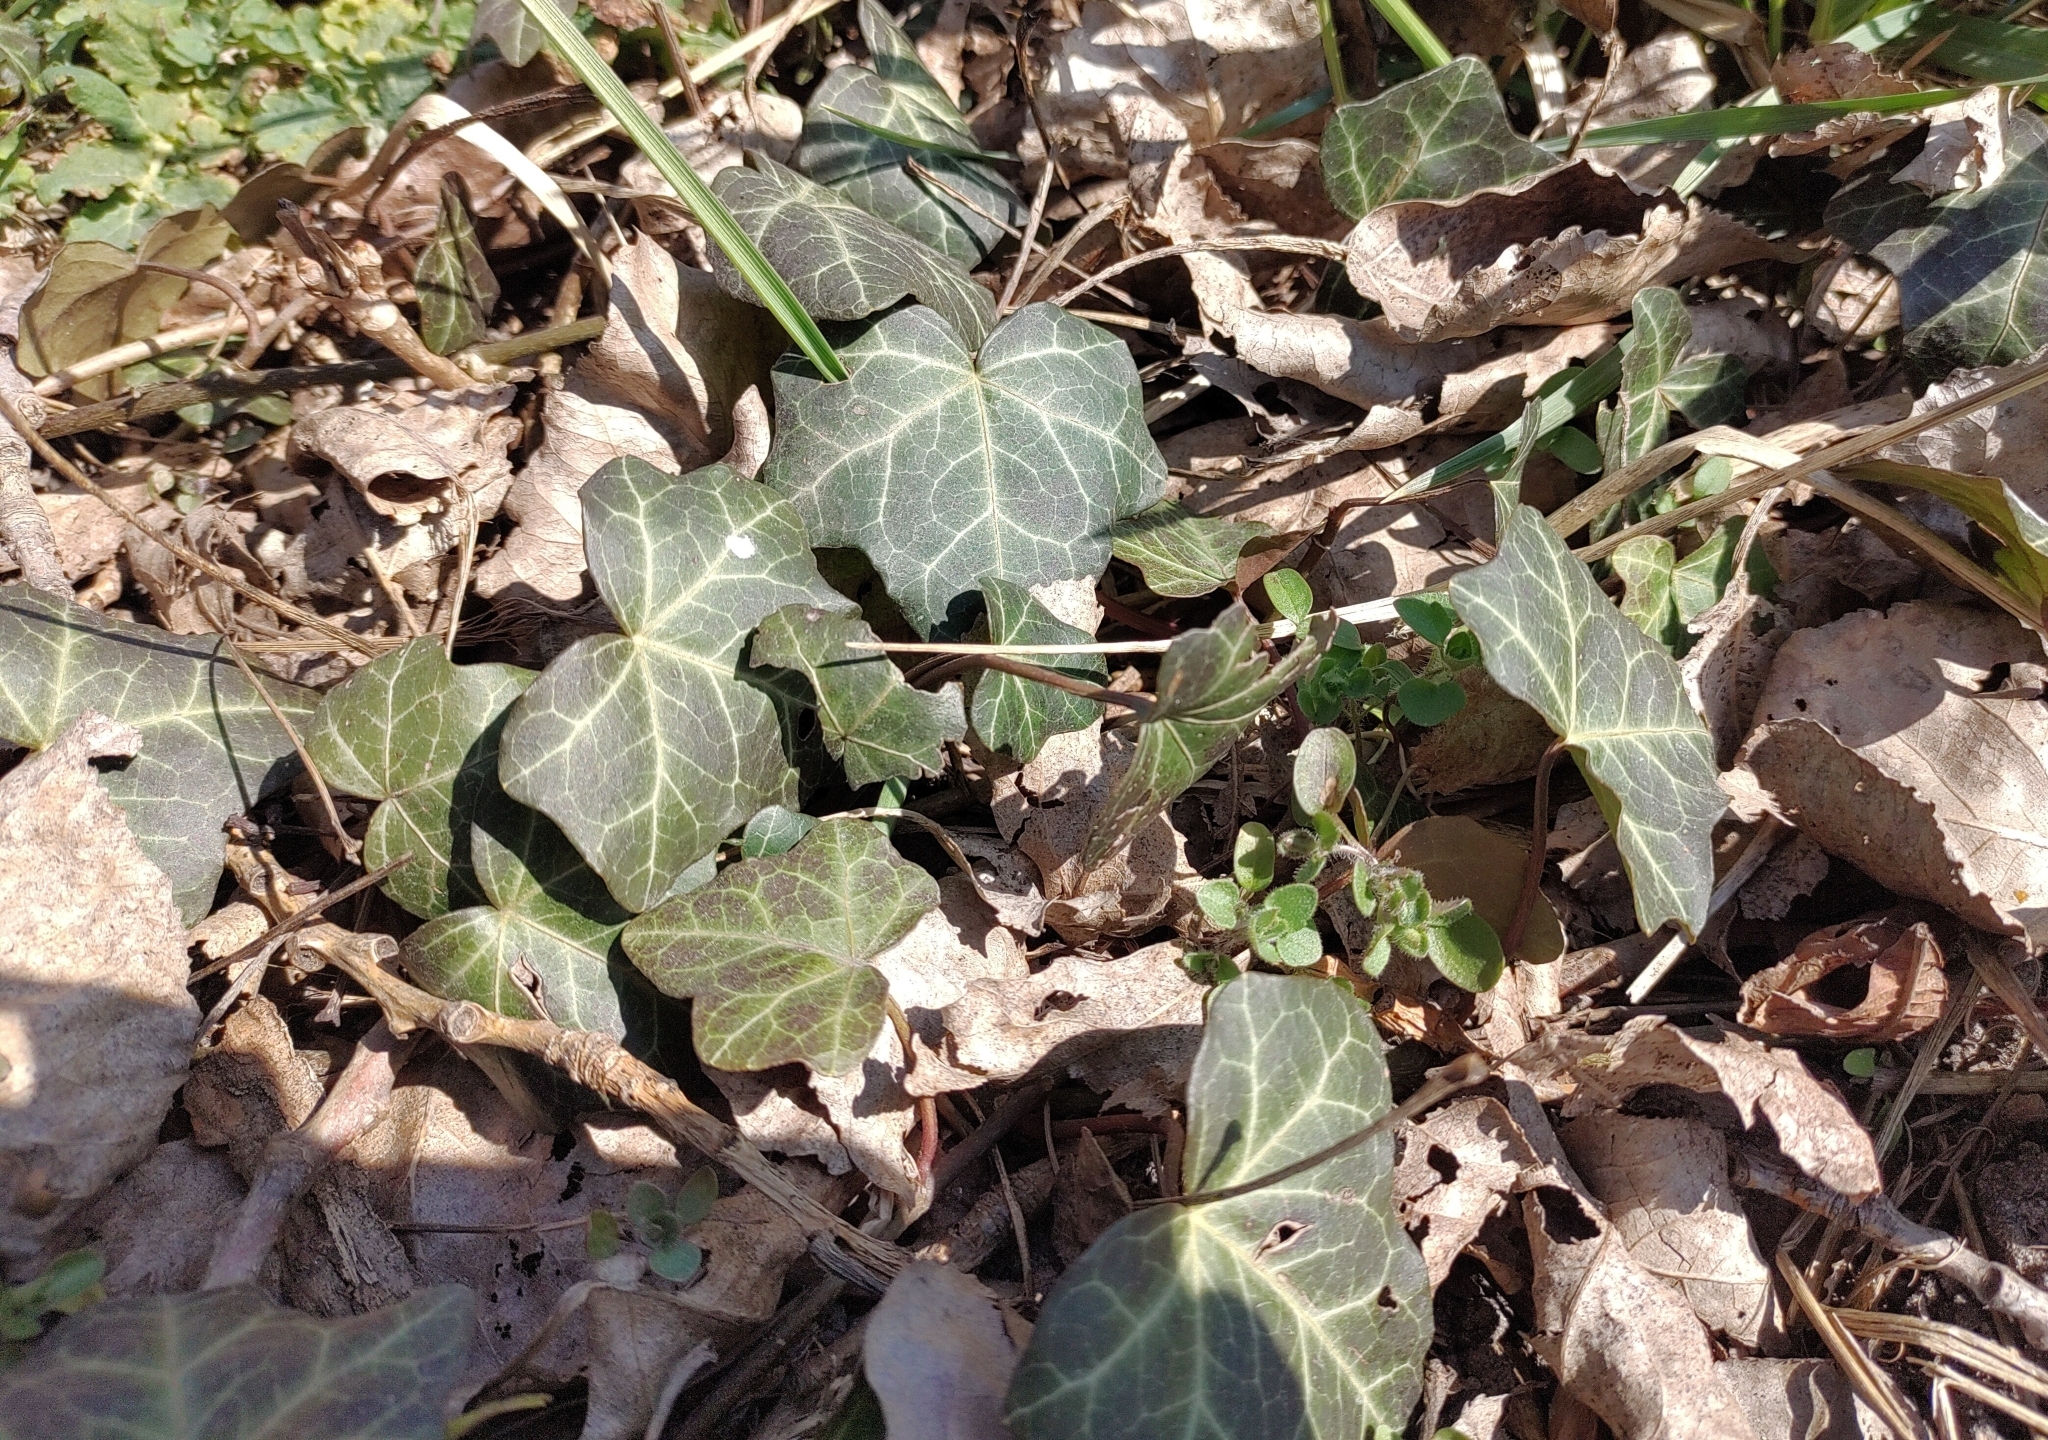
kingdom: Plantae
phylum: Tracheophyta
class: Magnoliopsida
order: Apiales
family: Araliaceae
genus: Hedera
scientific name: Hedera helix
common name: Ivy
